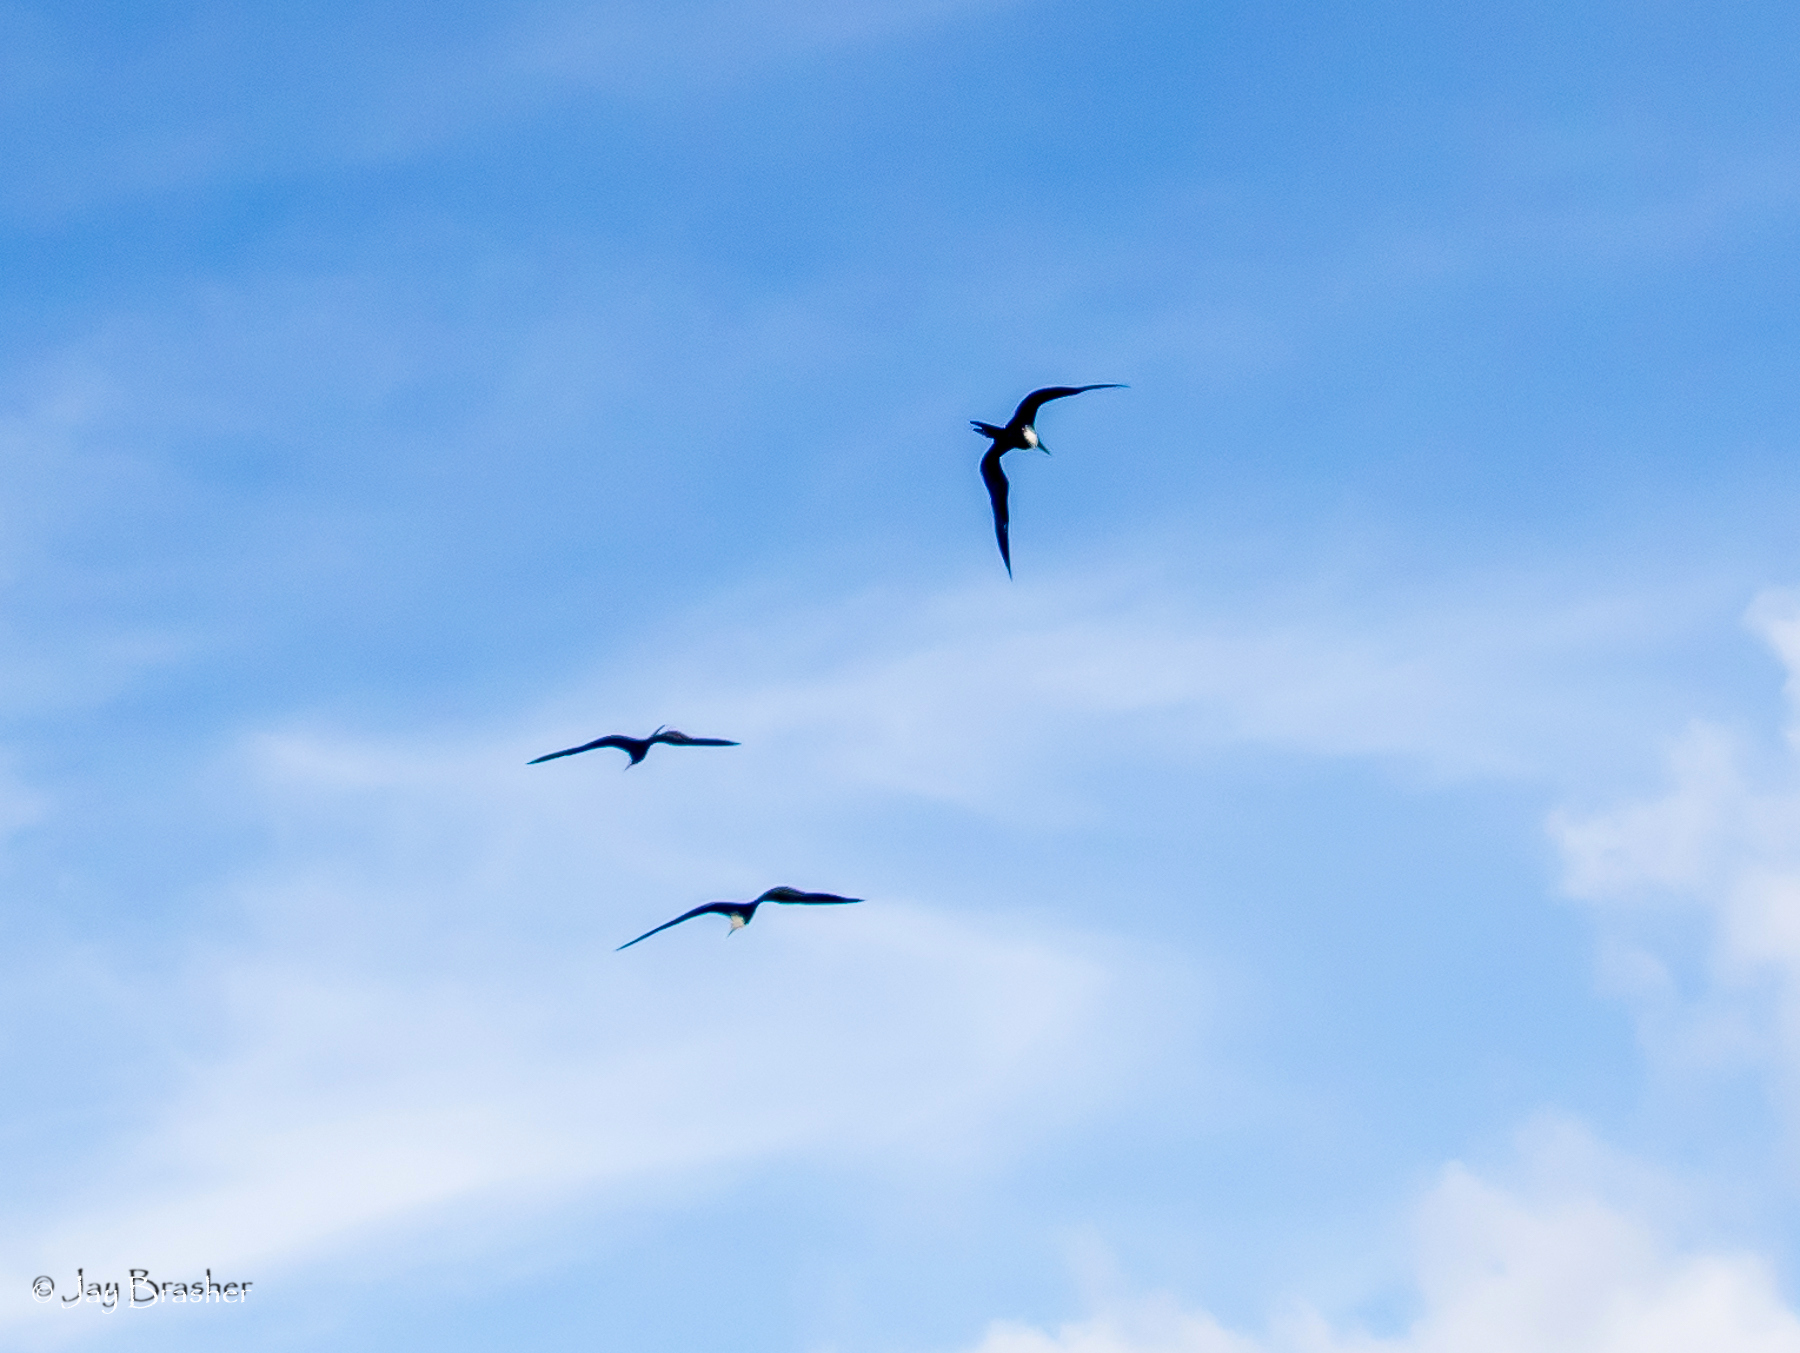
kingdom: Animalia
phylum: Chordata
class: Aves
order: Suliformes
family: Fregatidae
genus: Fregata
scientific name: Fregata magnificens
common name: Magnificent frigatebird
